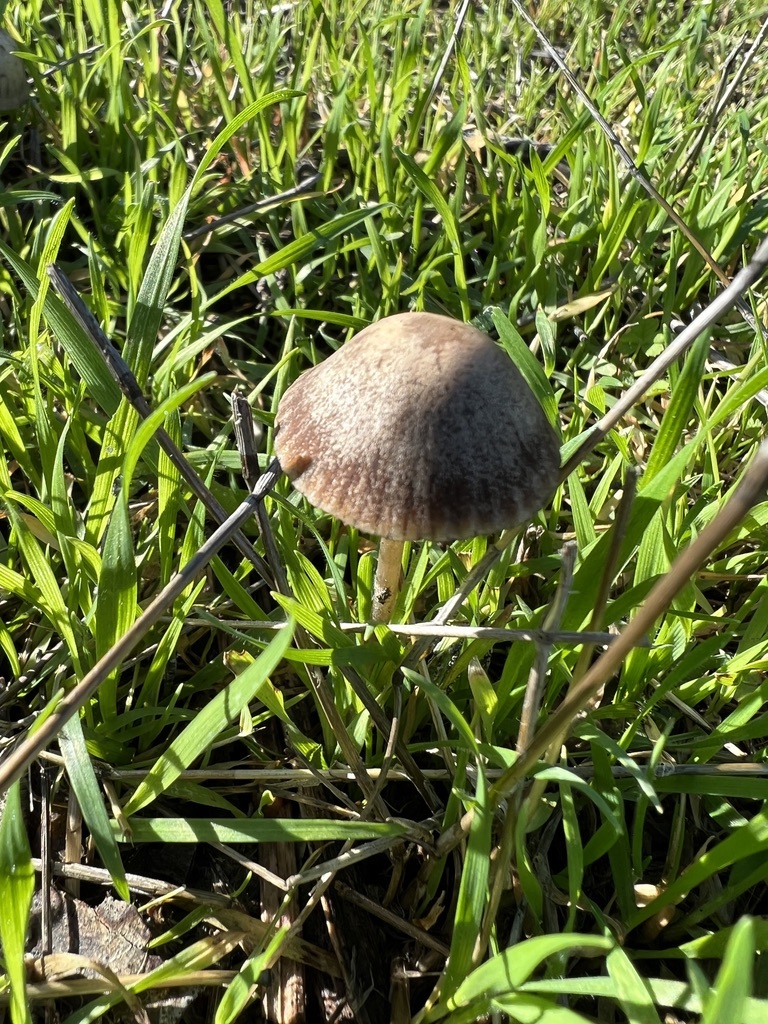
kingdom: Fungi
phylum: Basidiomycota
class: Agaricomycetes
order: Agaricales
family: Bolbitiaceae
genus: Panaeolina
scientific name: Panaeolina foenisecii
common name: Brown hay cap
